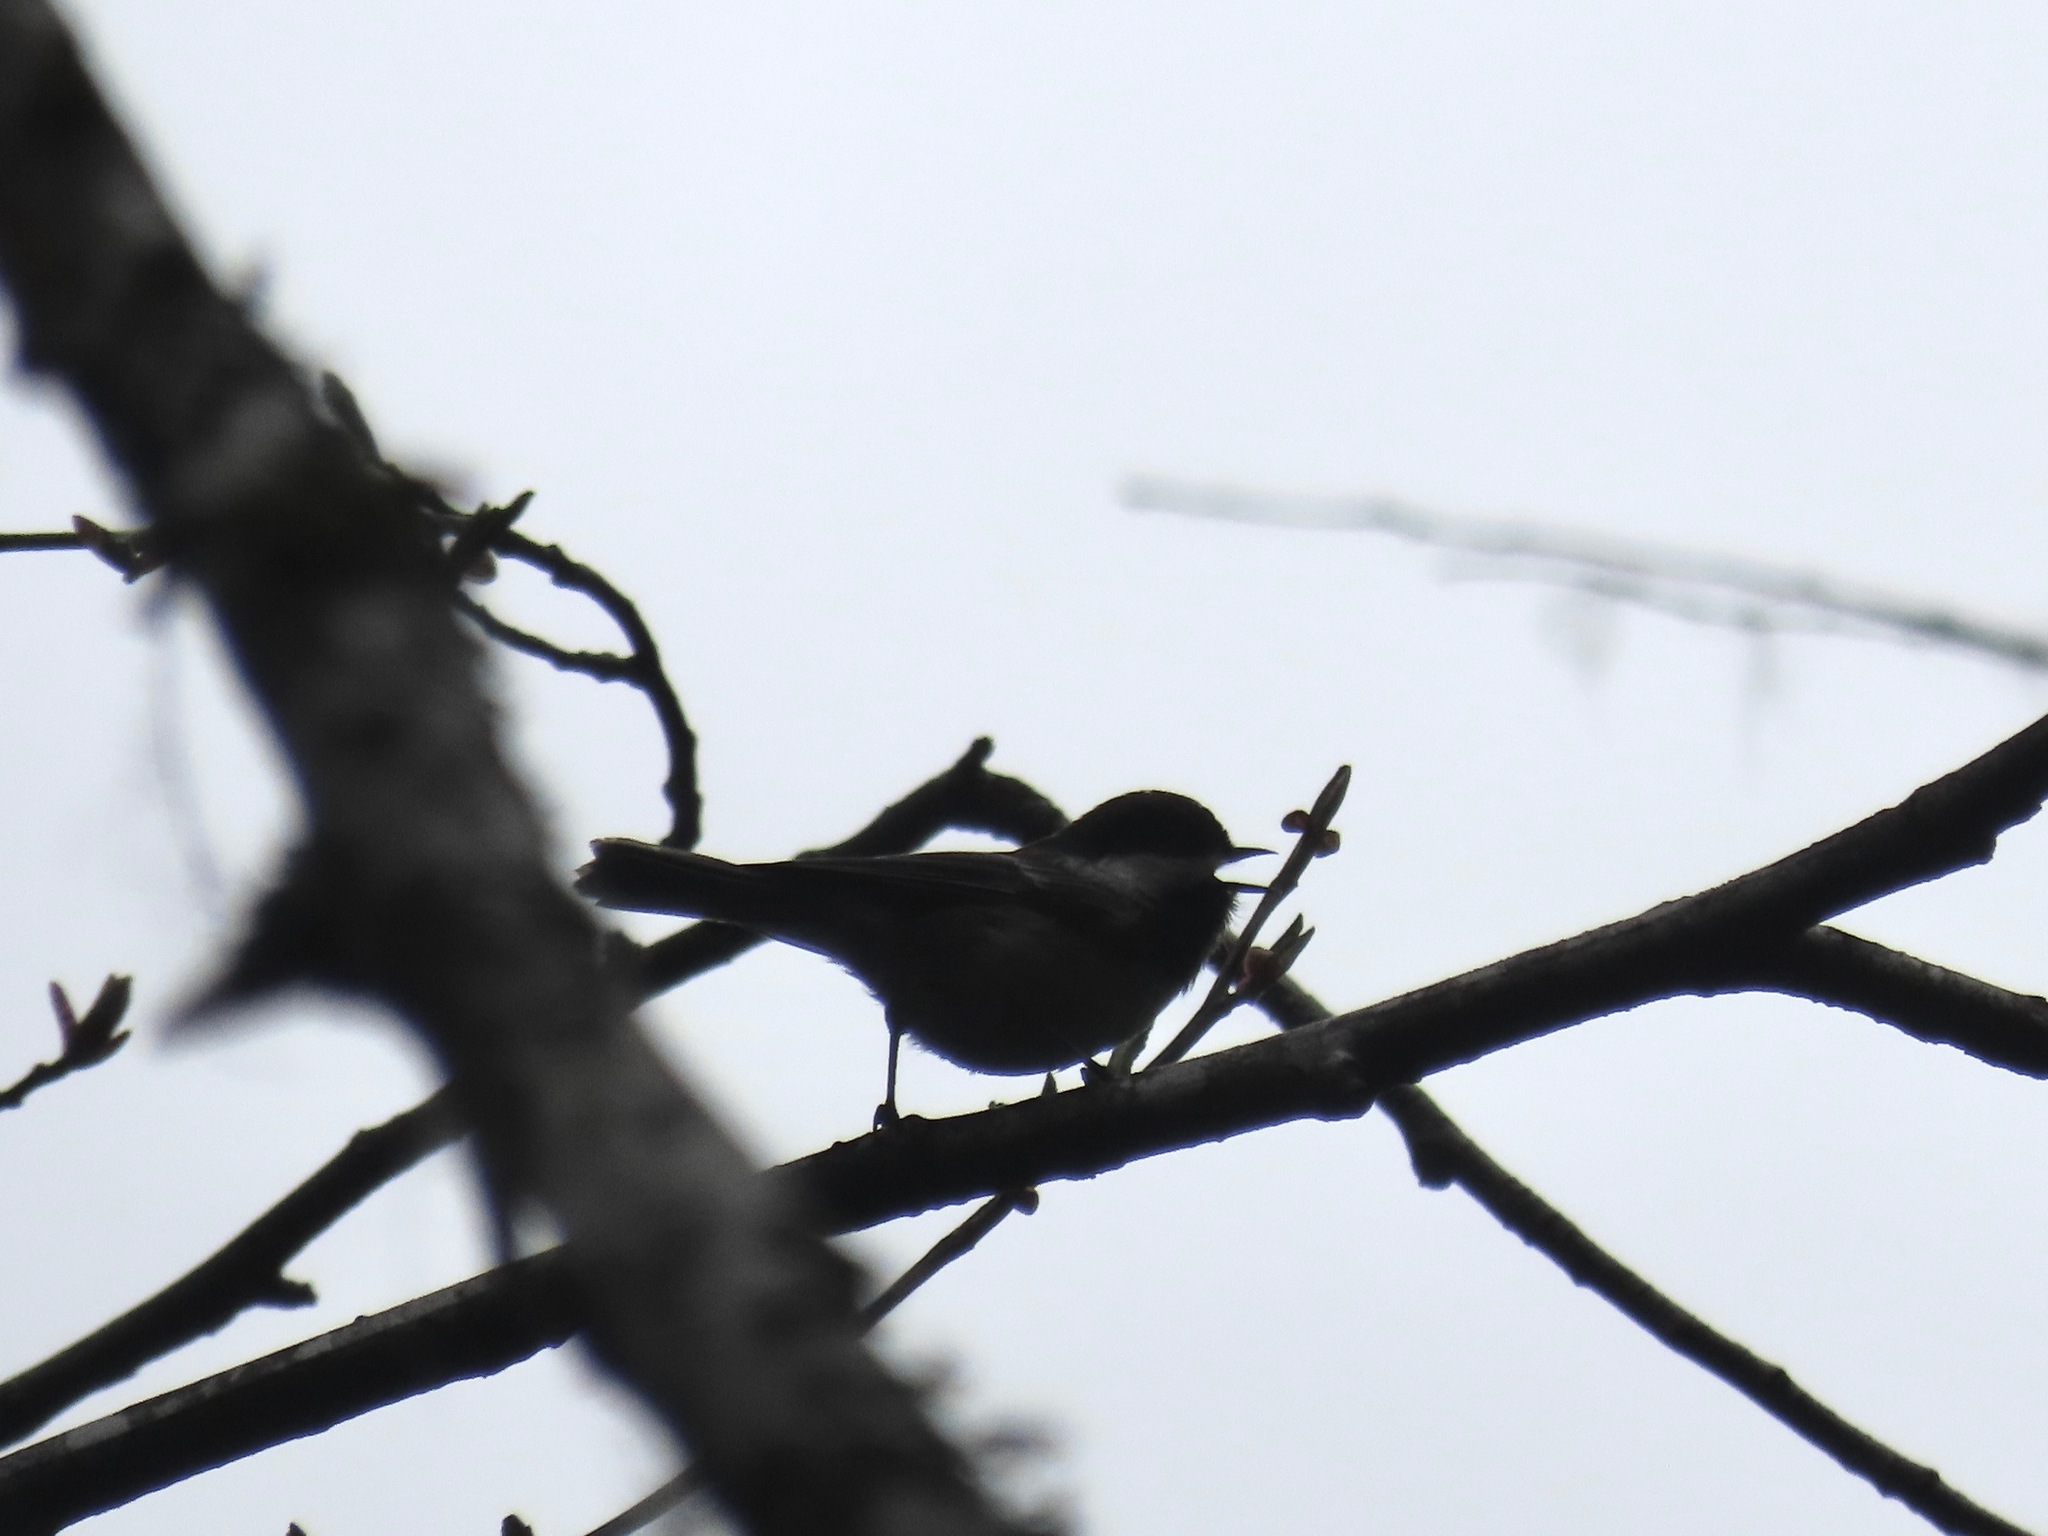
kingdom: Animalia
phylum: Chordata
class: Aves
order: Passeriformes
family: Paridae
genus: Poecile
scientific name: Poecile rufescens
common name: Chestnut-backed chickadee
